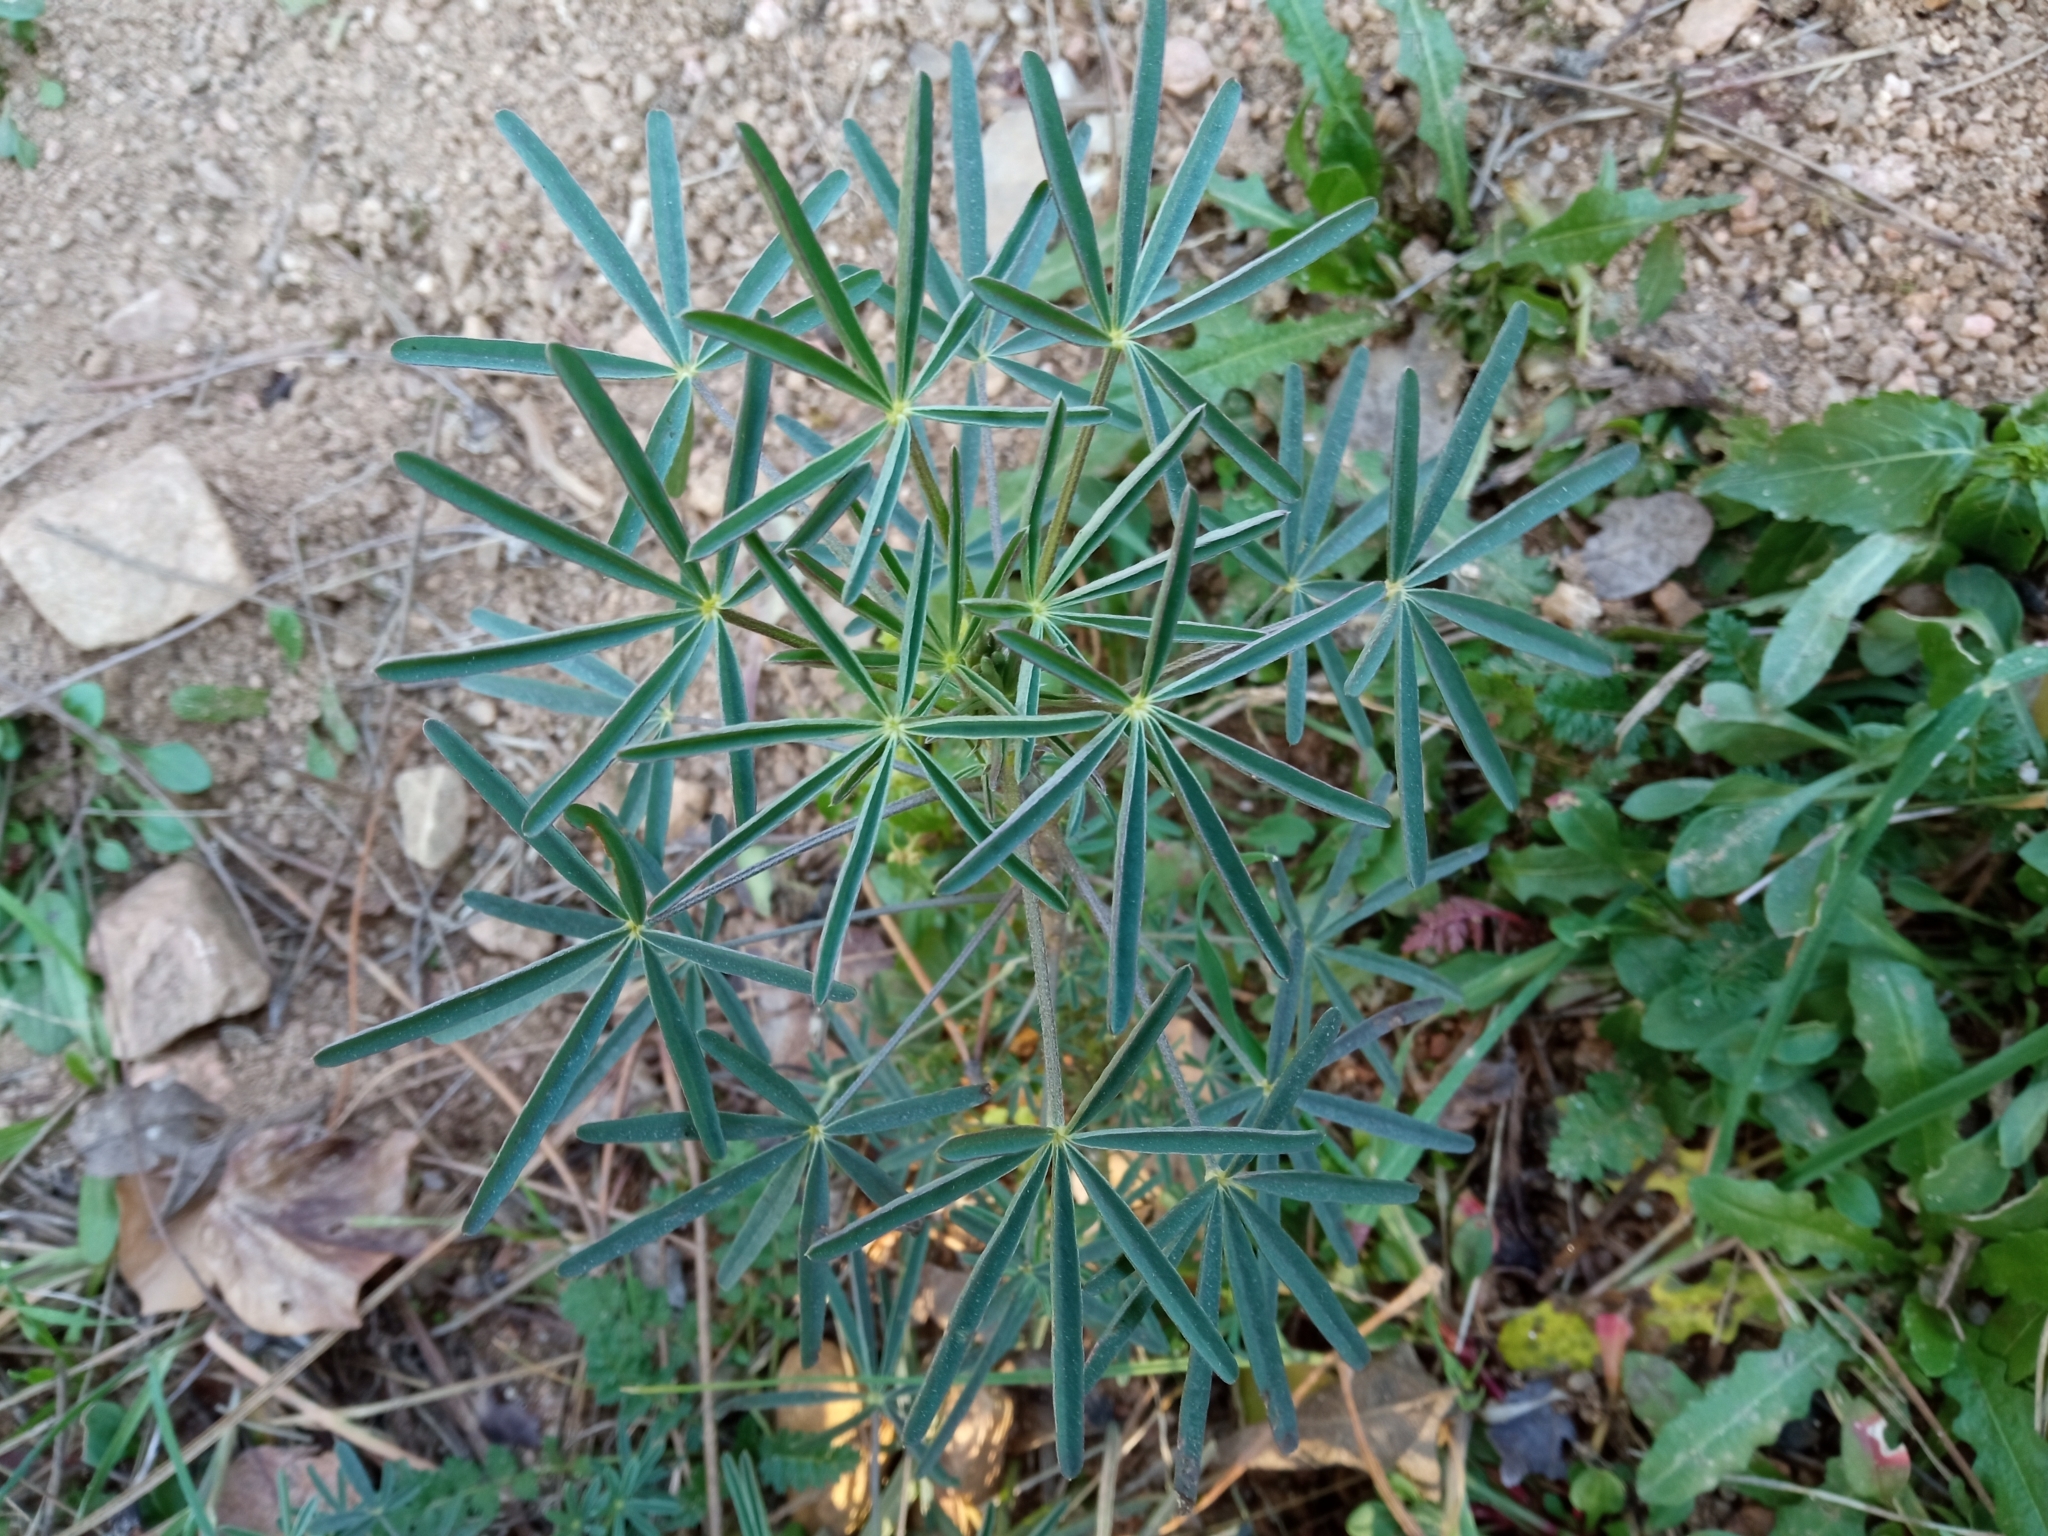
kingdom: Plantae
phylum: Tracheophyta
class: Magnoliopsida
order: Fabales
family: Fabaceae
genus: Lupinus
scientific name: Lupinus angustifolius
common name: Narrow-leaved lupin
